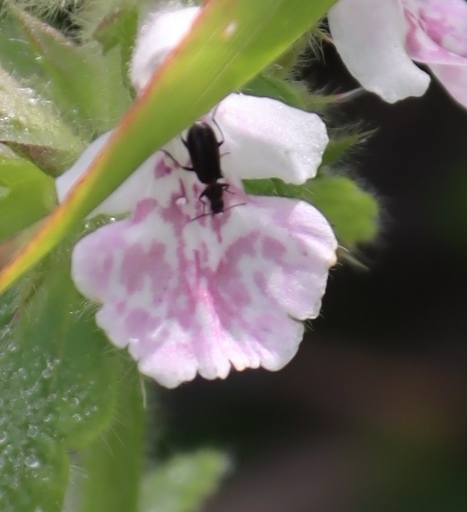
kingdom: Plantae
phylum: Tracheophyta
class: Magnoliopsida
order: Lamiales
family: Lamiaceae
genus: Stachys
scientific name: Stachys bolusii
